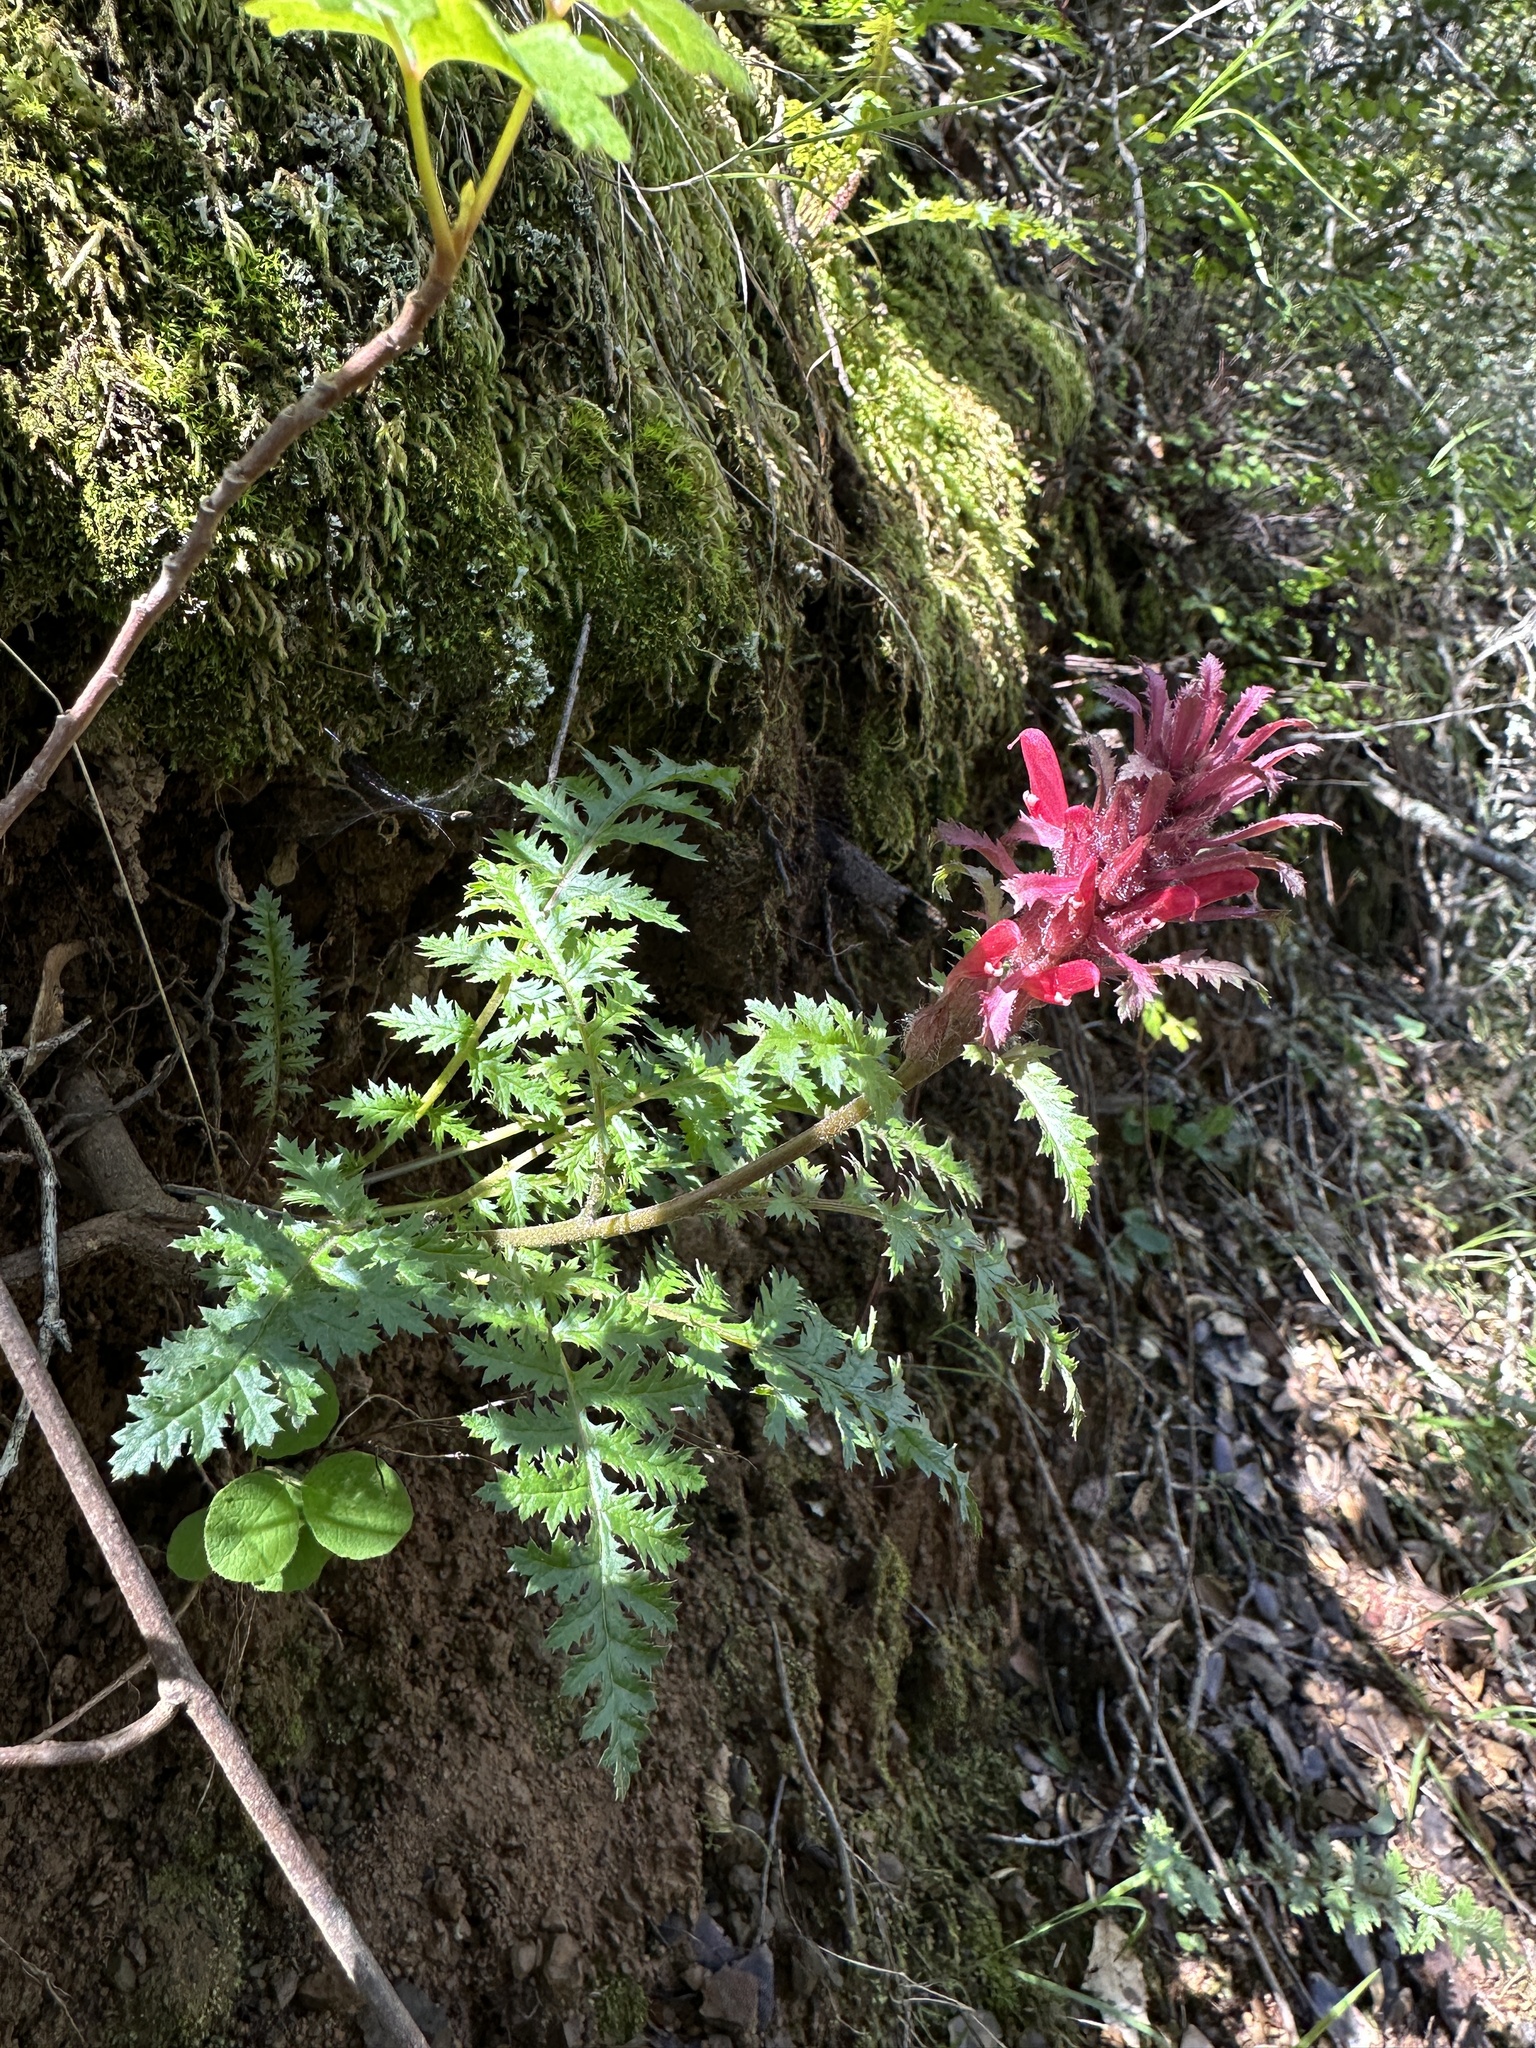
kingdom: Plantae
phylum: Tracheophyta
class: Magnoliopsida
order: Lamiales
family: Orobanchaceae
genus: Pedicularis
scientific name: Pedicularis densiflora
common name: Indian warrior
